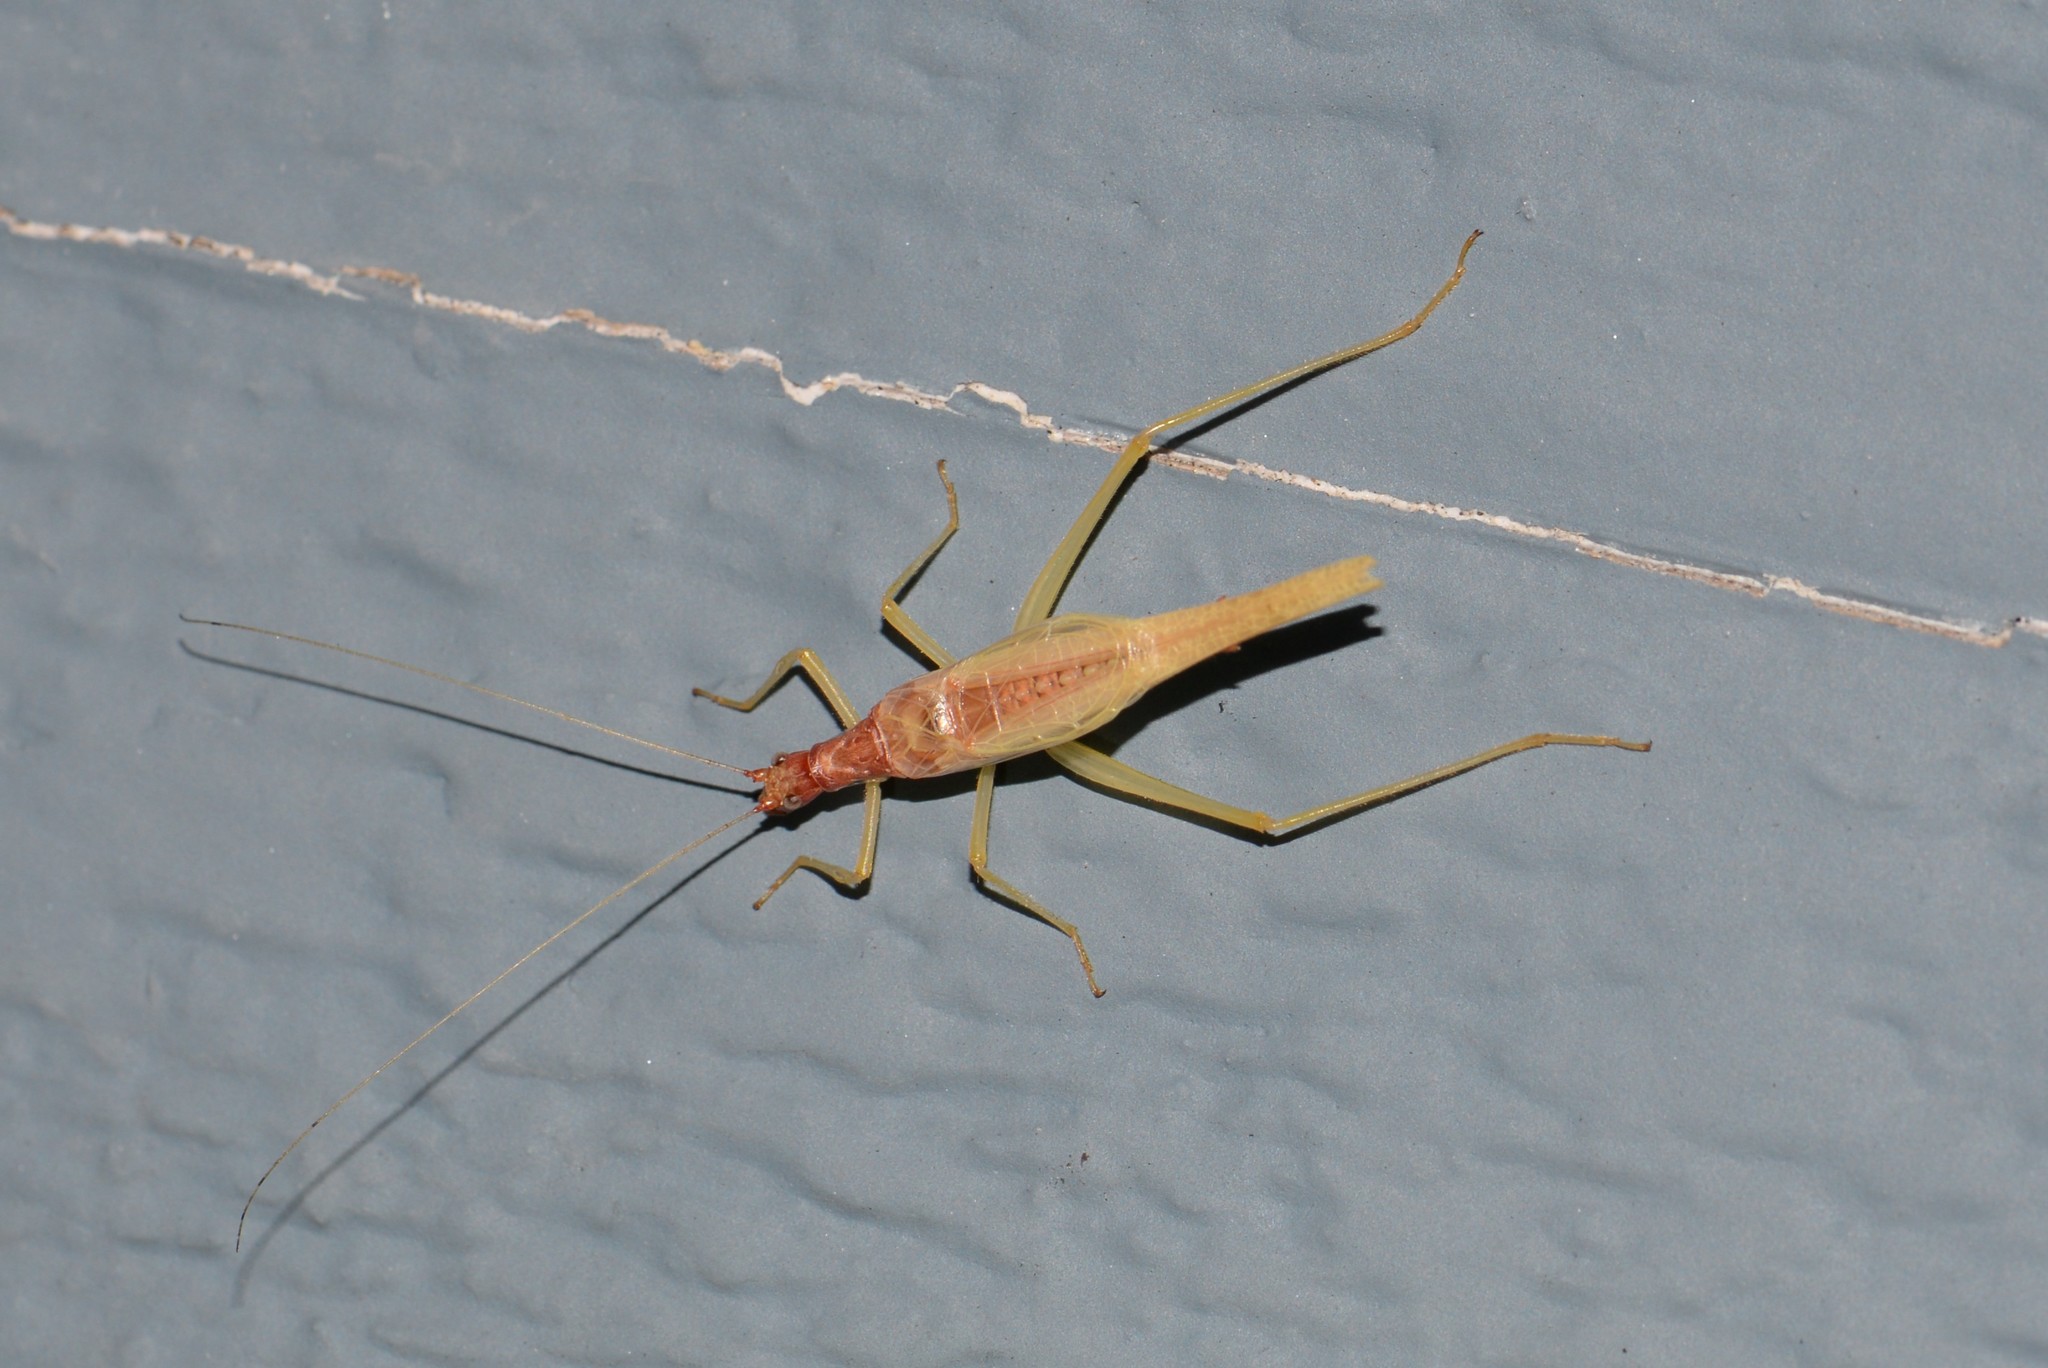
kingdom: Animalia
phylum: Arthropoda
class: Insecta
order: Orthoptera
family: Gryllidae
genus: Neoxabea
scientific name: Neoxabea bipunctata
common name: Two-spotted tree cricket
